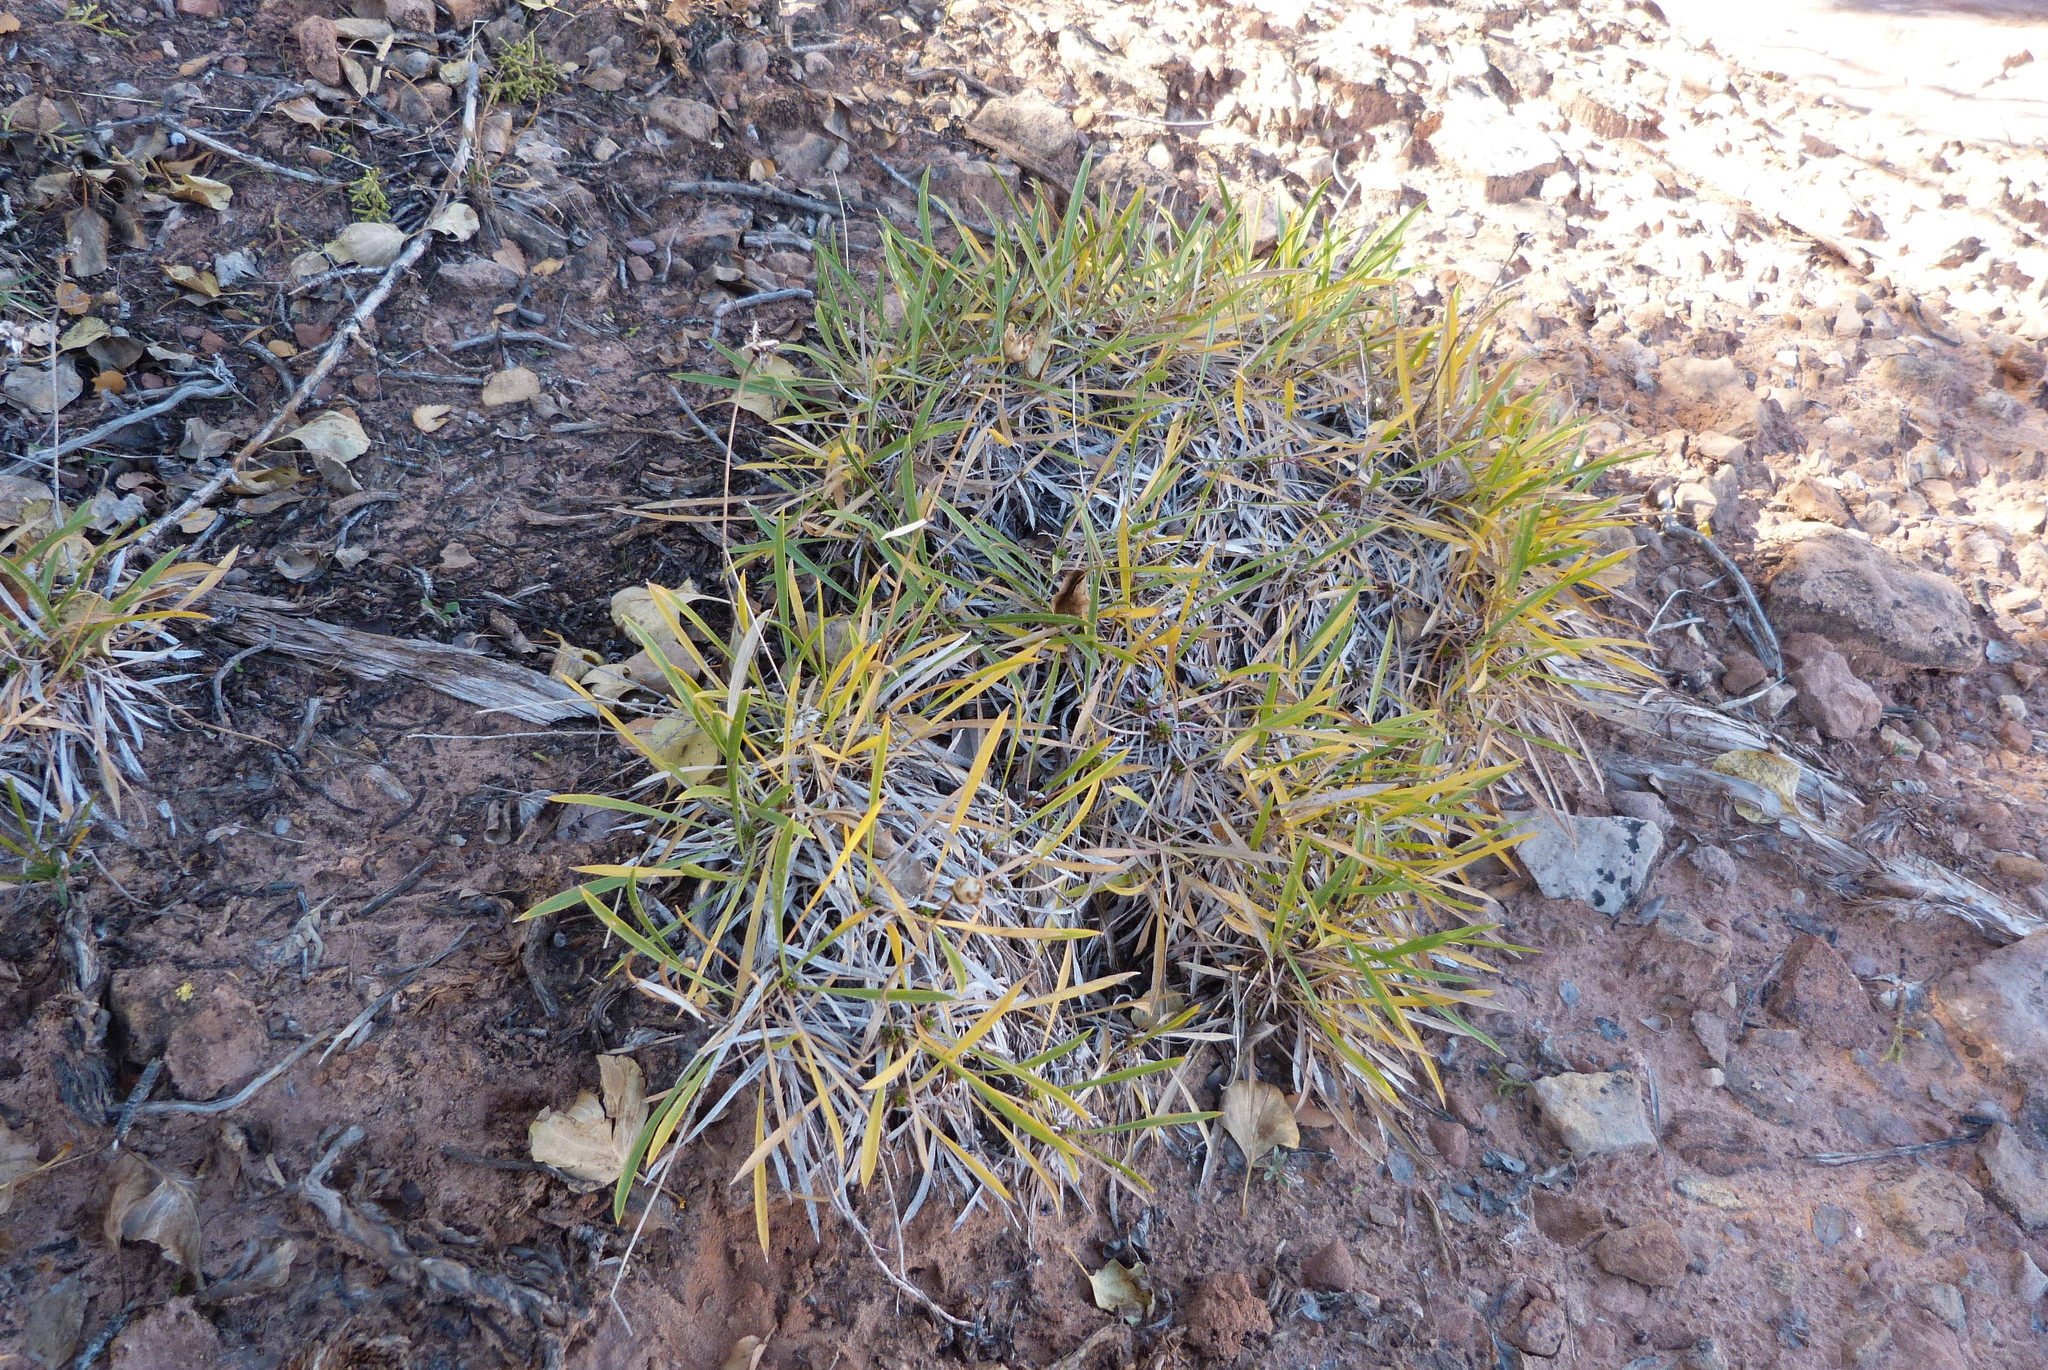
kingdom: Plantae
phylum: Tracheophyta
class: Magnoliopsida
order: Asterales
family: Asteraceae
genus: Petradoria
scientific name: Petradoria pumila
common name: Rock-goldenrod
